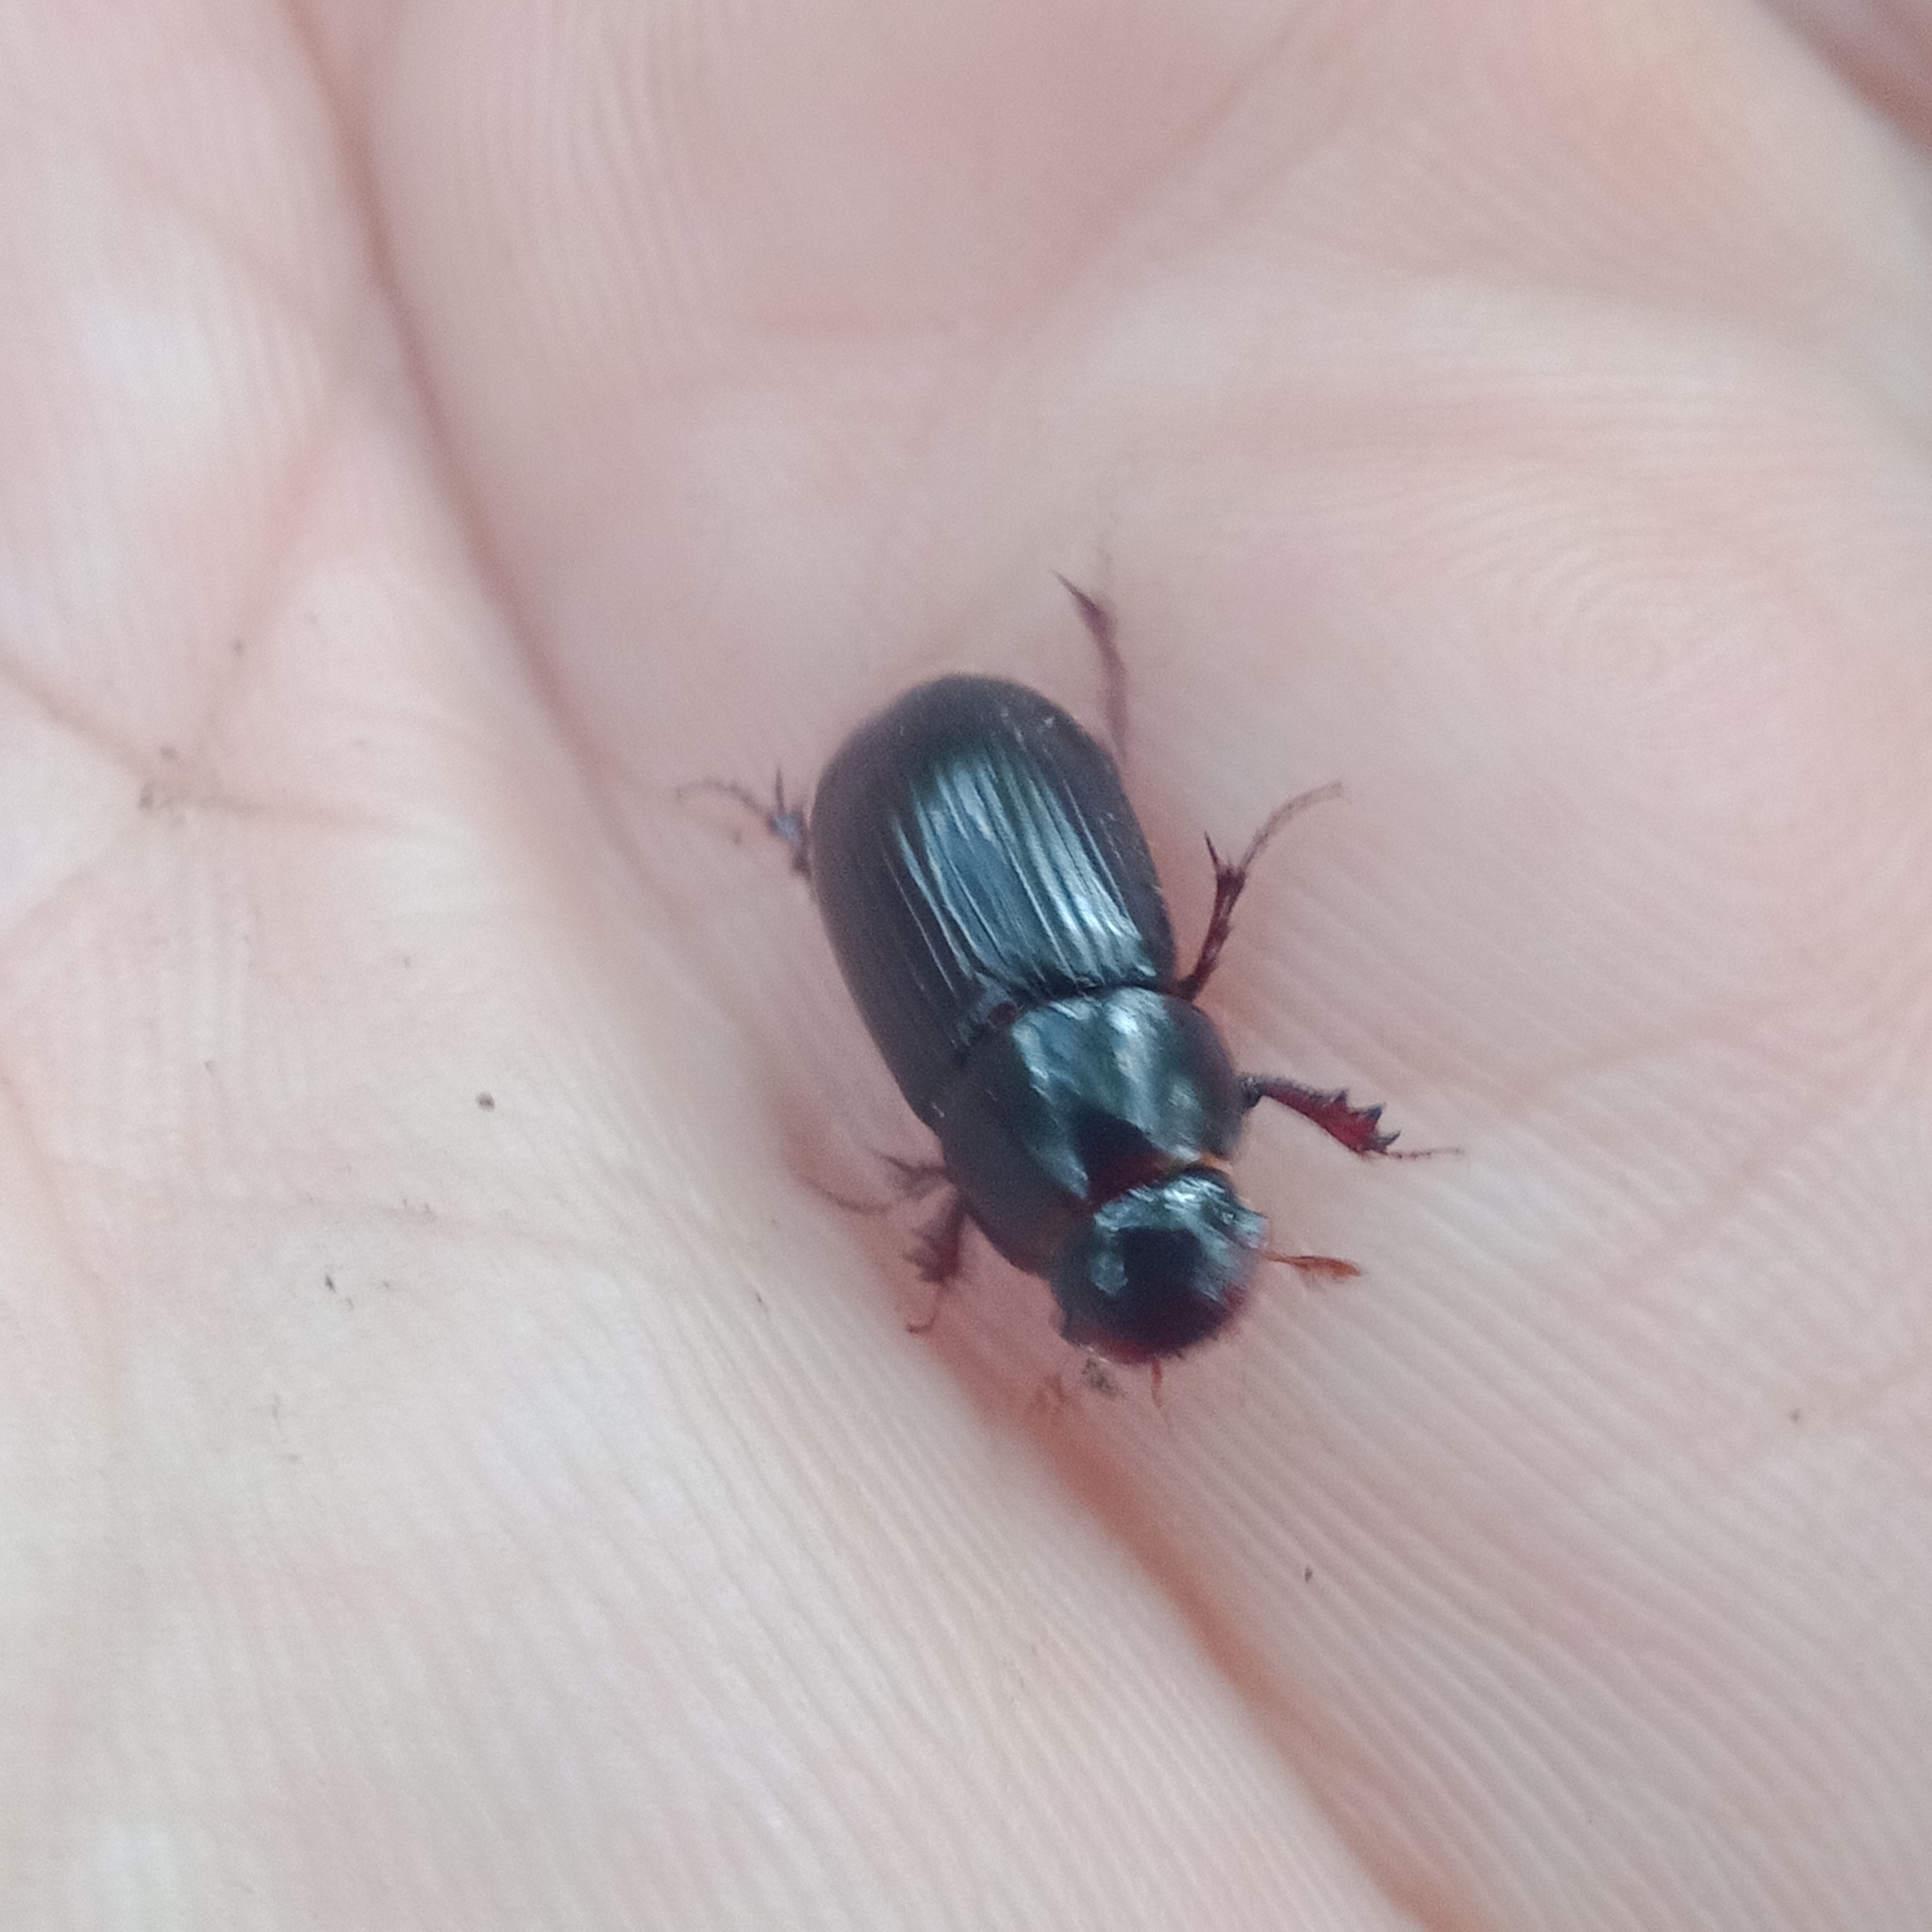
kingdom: Animalia
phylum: Arthropoda
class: Insecta
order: Coleoptera
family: Scarabaeidae
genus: Acrossus
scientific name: Acrossus rufipes
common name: Night-flying dung beetle
